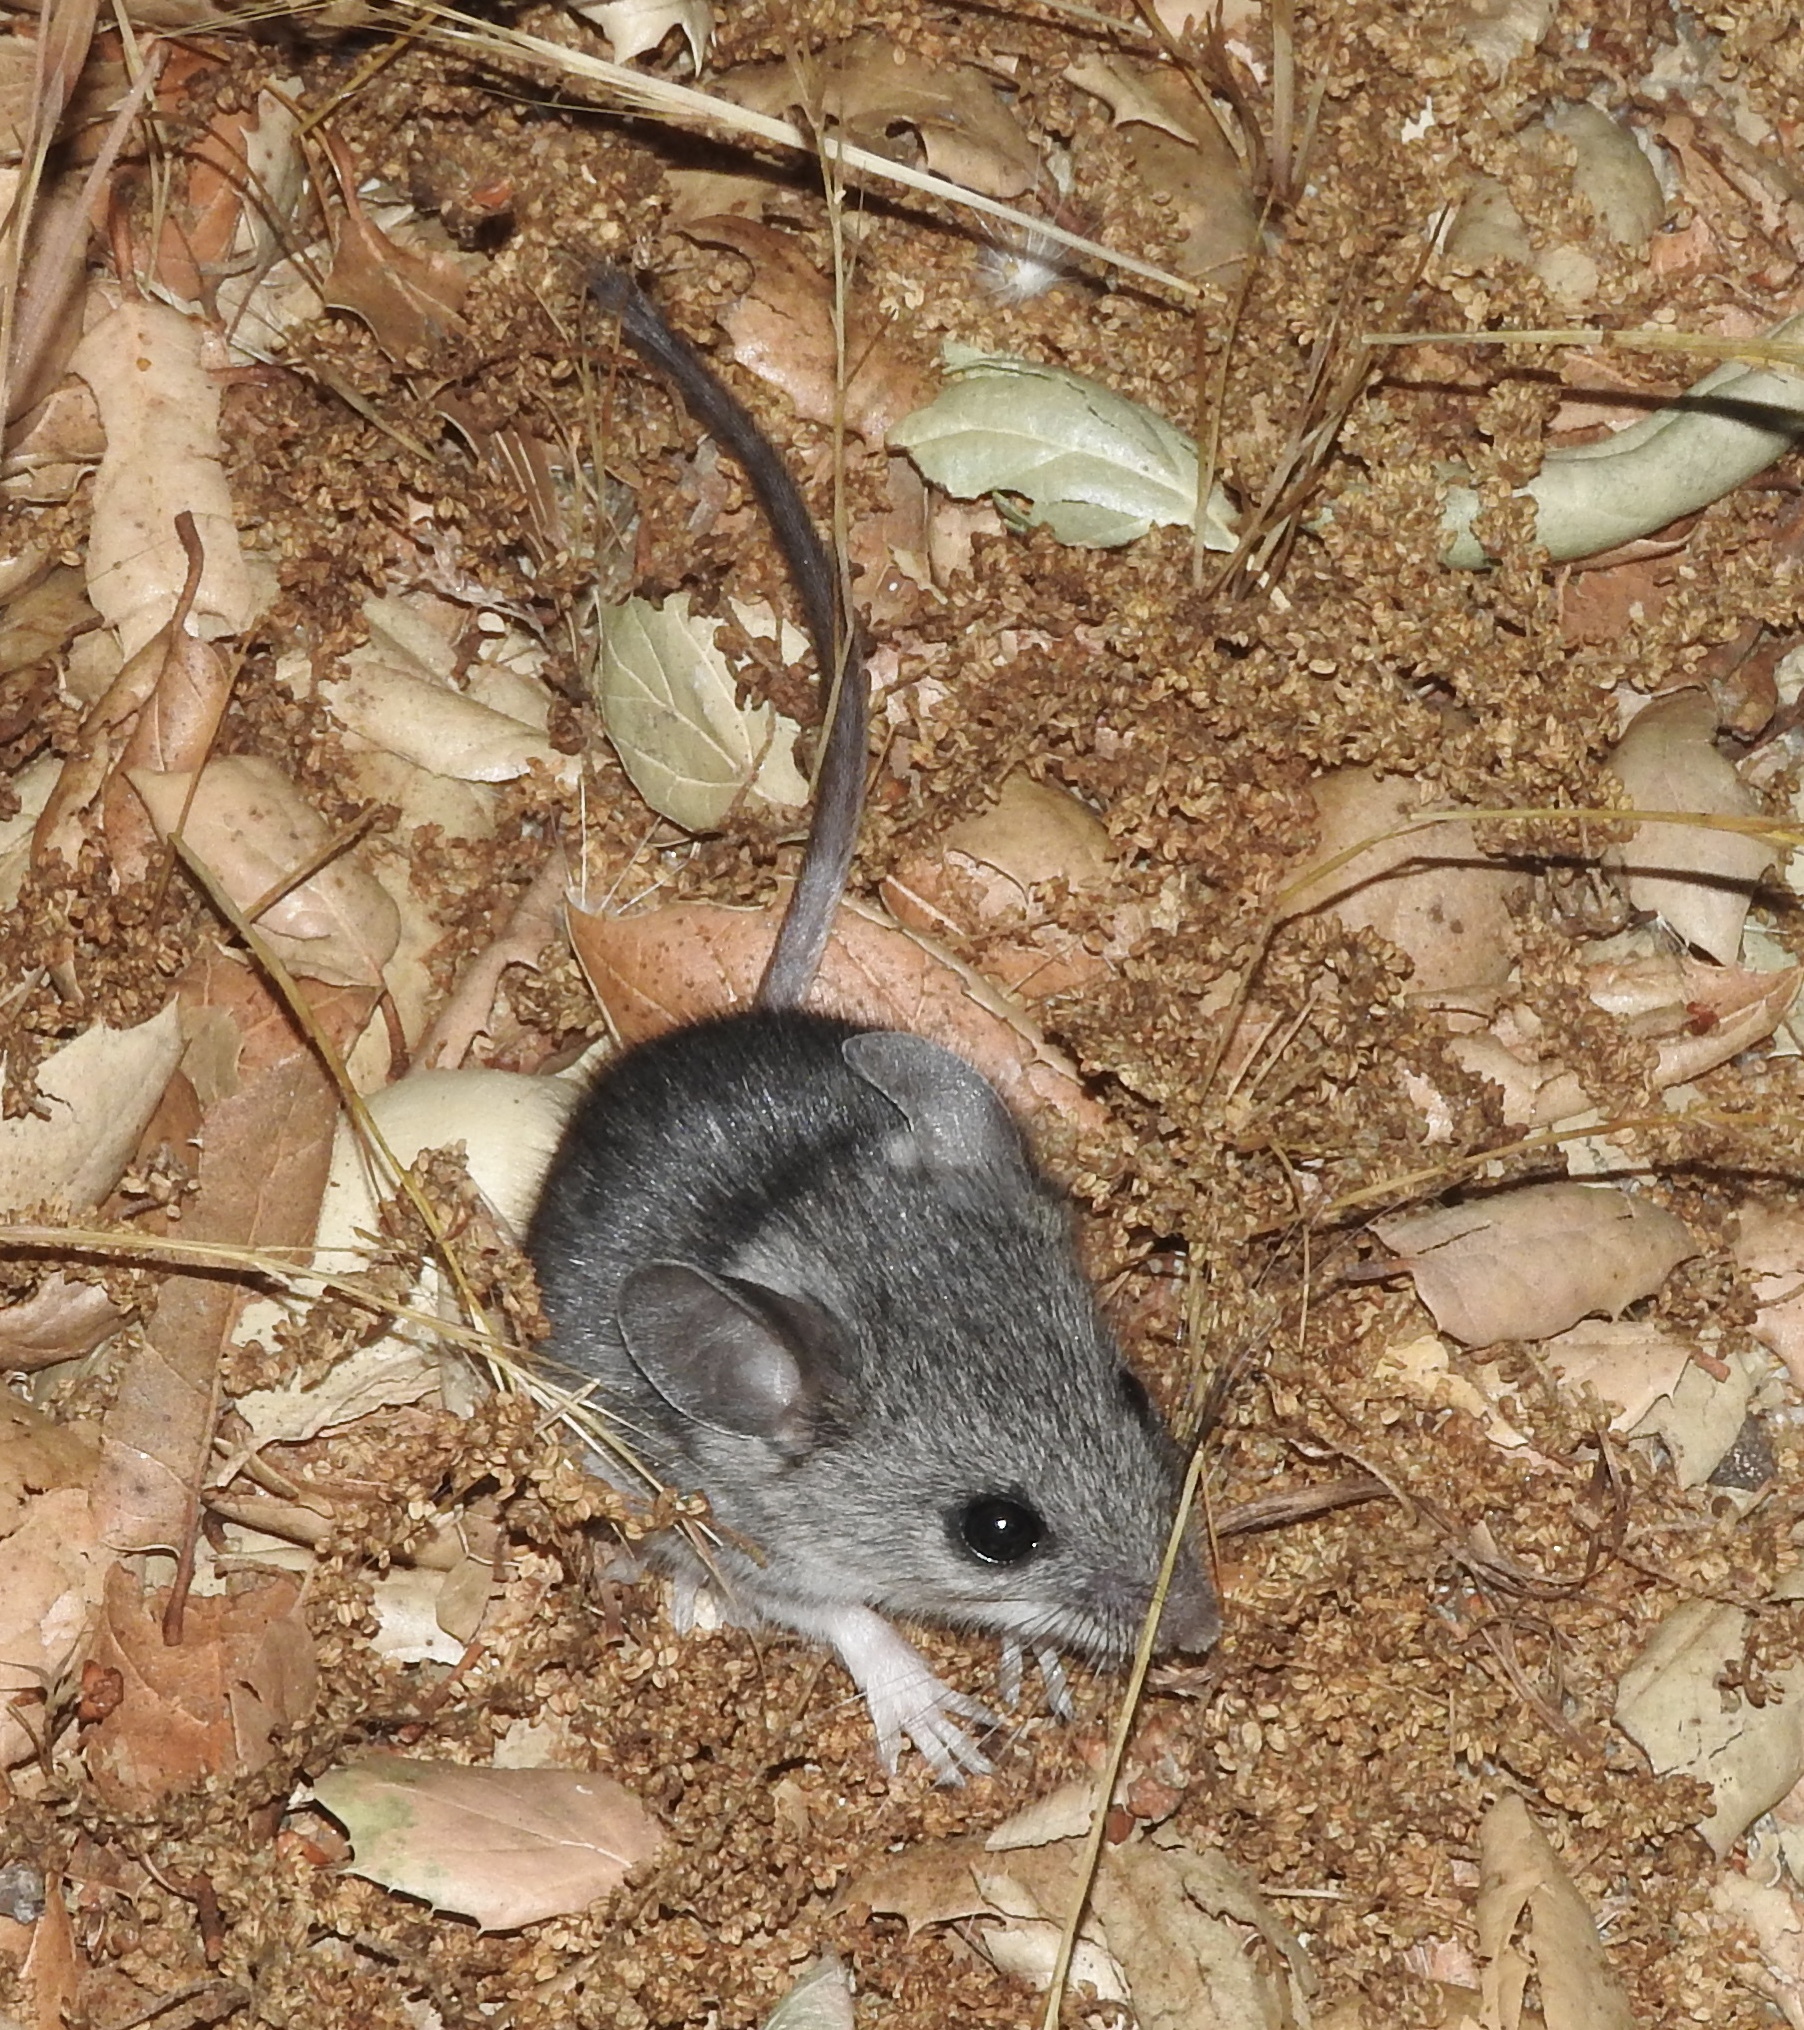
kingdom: Animalia
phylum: Chordata
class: Mammalia
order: Rodentia
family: Cricetidae
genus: Peromyscus
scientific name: Peromyscus boylii
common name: Brush mouse
